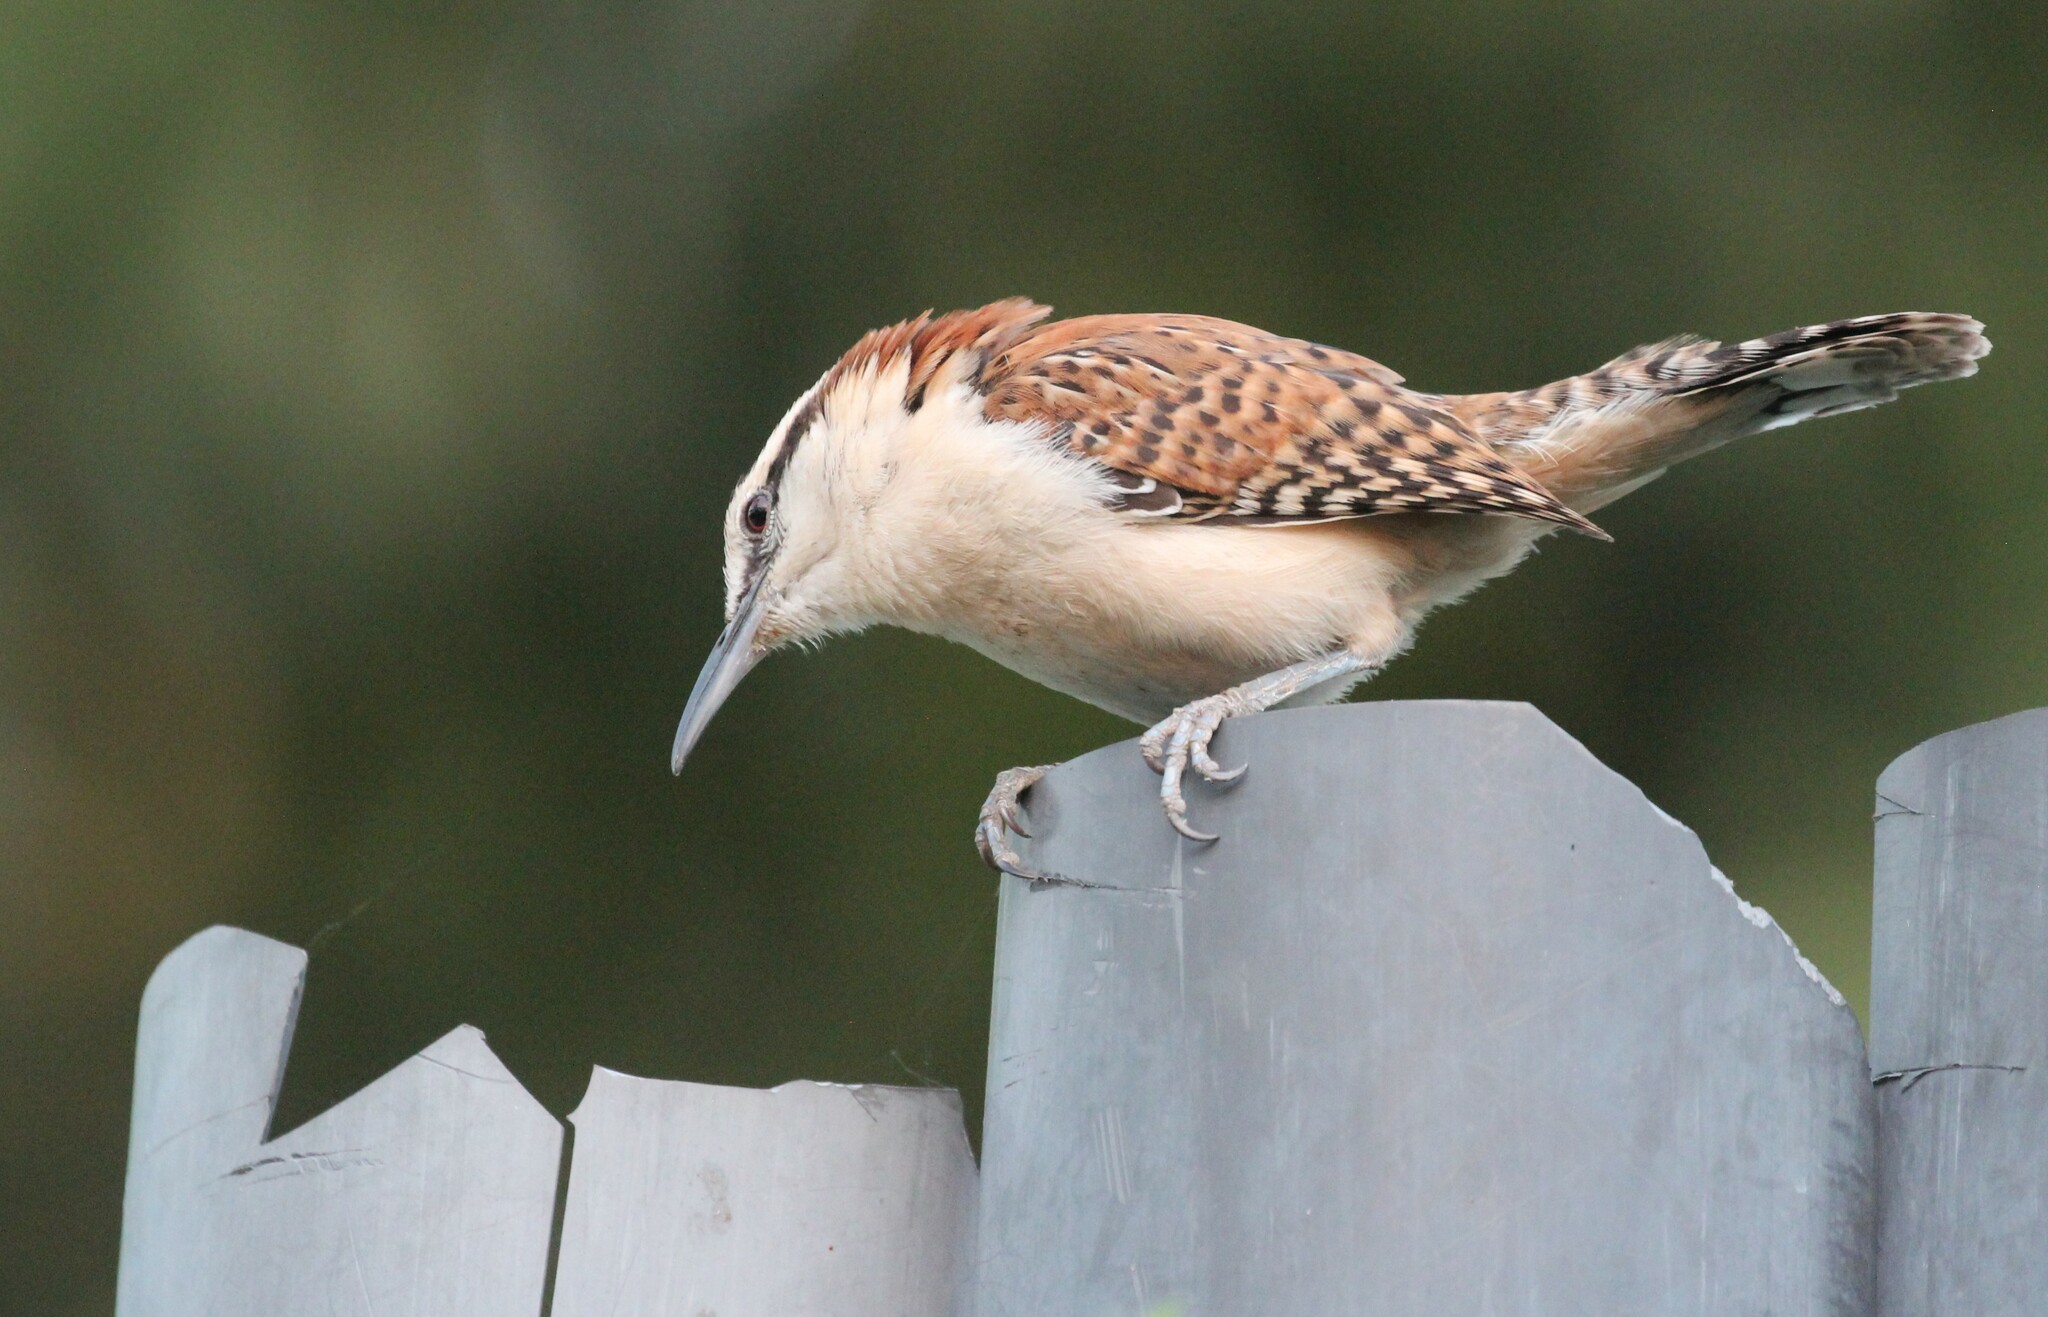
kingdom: Animalia
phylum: Chordata
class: Aves
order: Passeriformes
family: Troglodytidae
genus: Campylorhynchus
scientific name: Campylorhynchus rufinucha
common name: Rufous-naped wren
